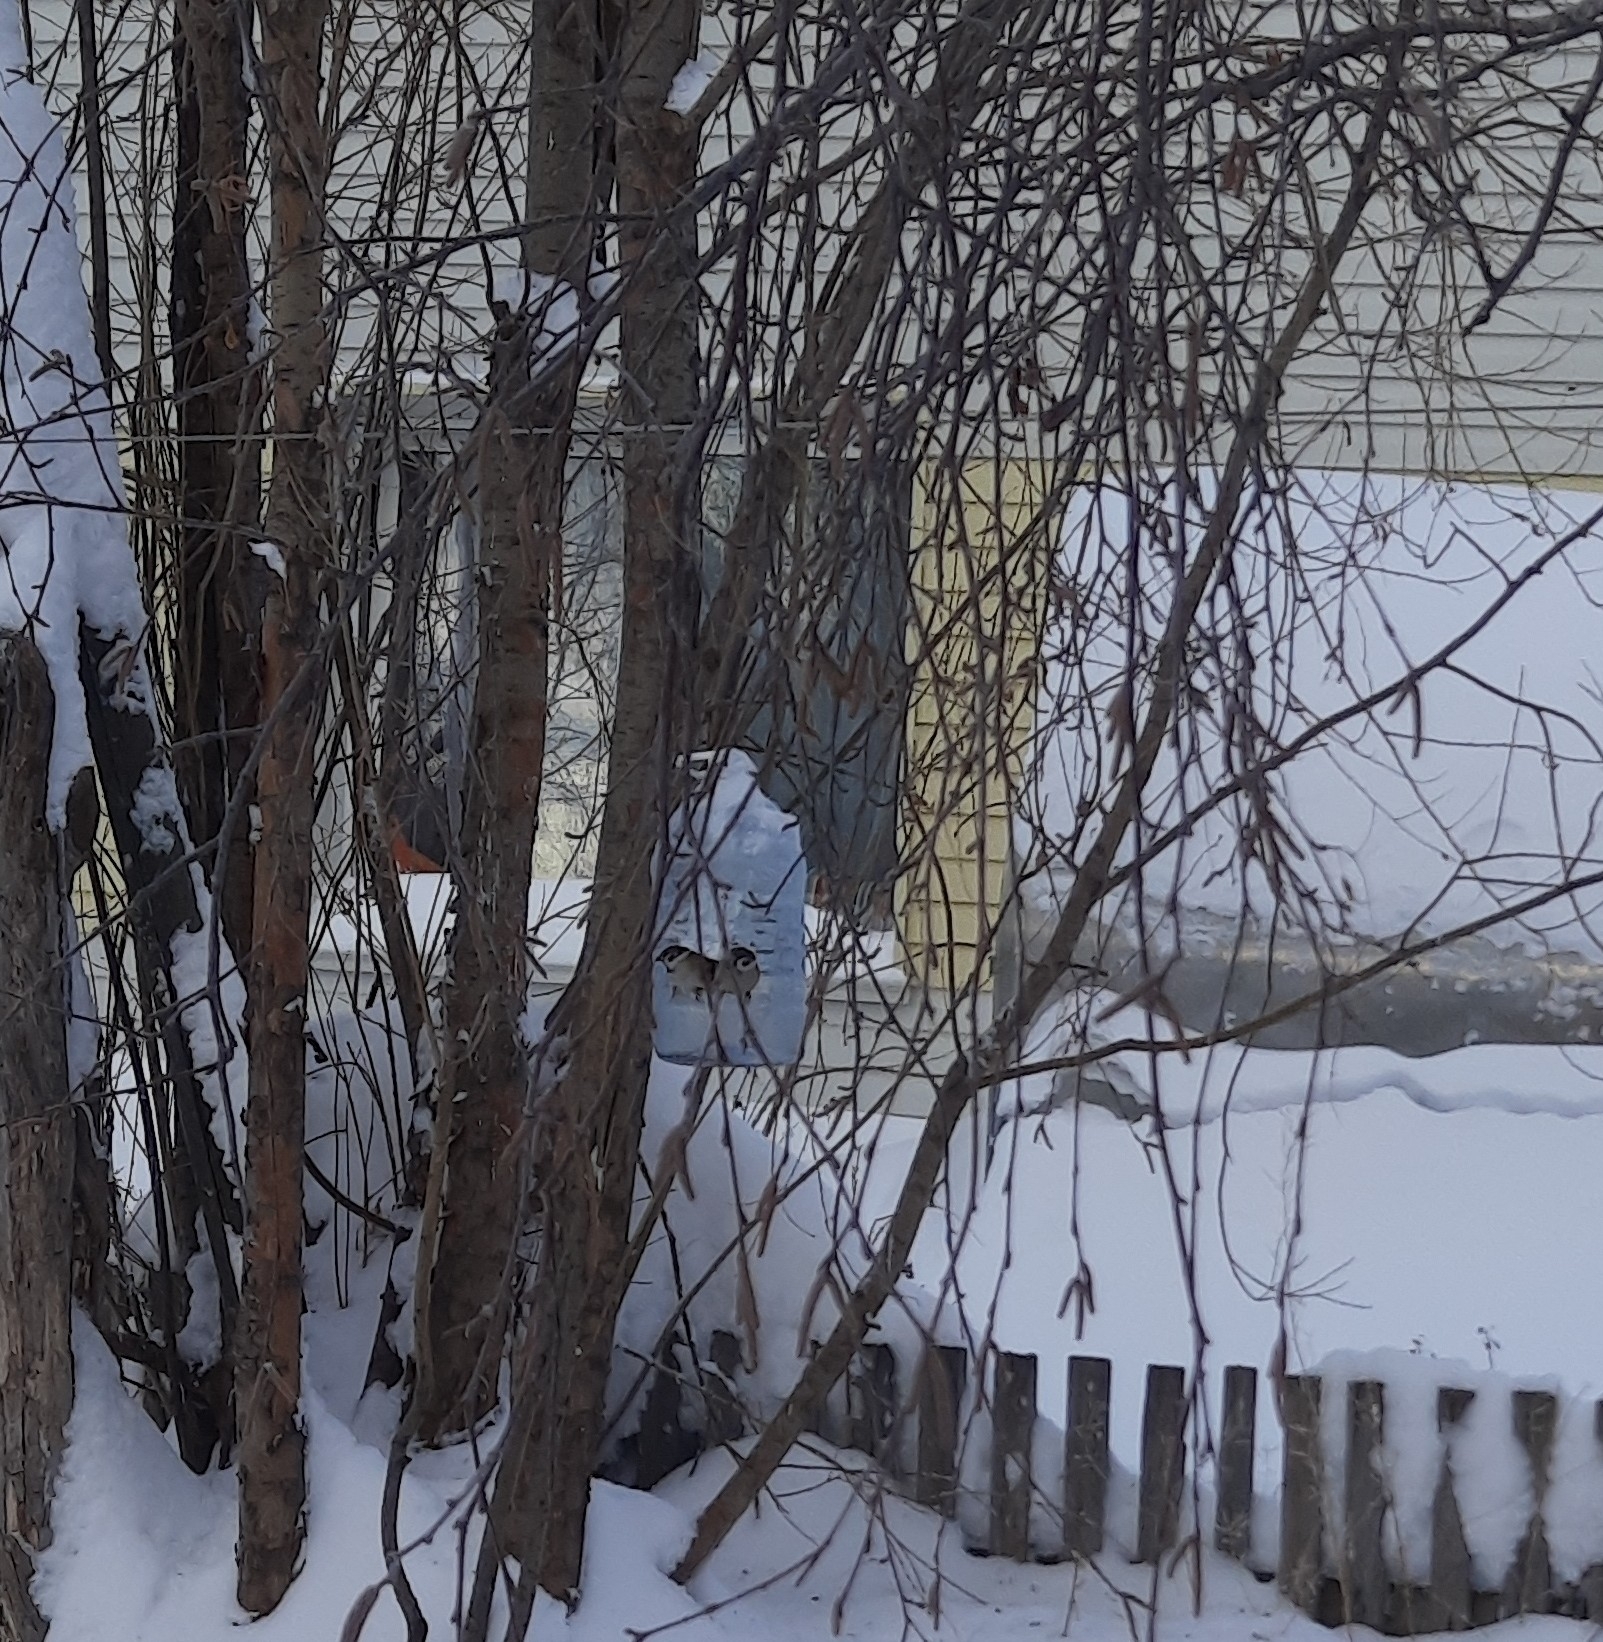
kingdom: Animalia
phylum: Chordata
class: Aves
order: Passeriformes
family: Passeridae
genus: Passer
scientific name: Passer montanus
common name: Eurasian tree sparrow
